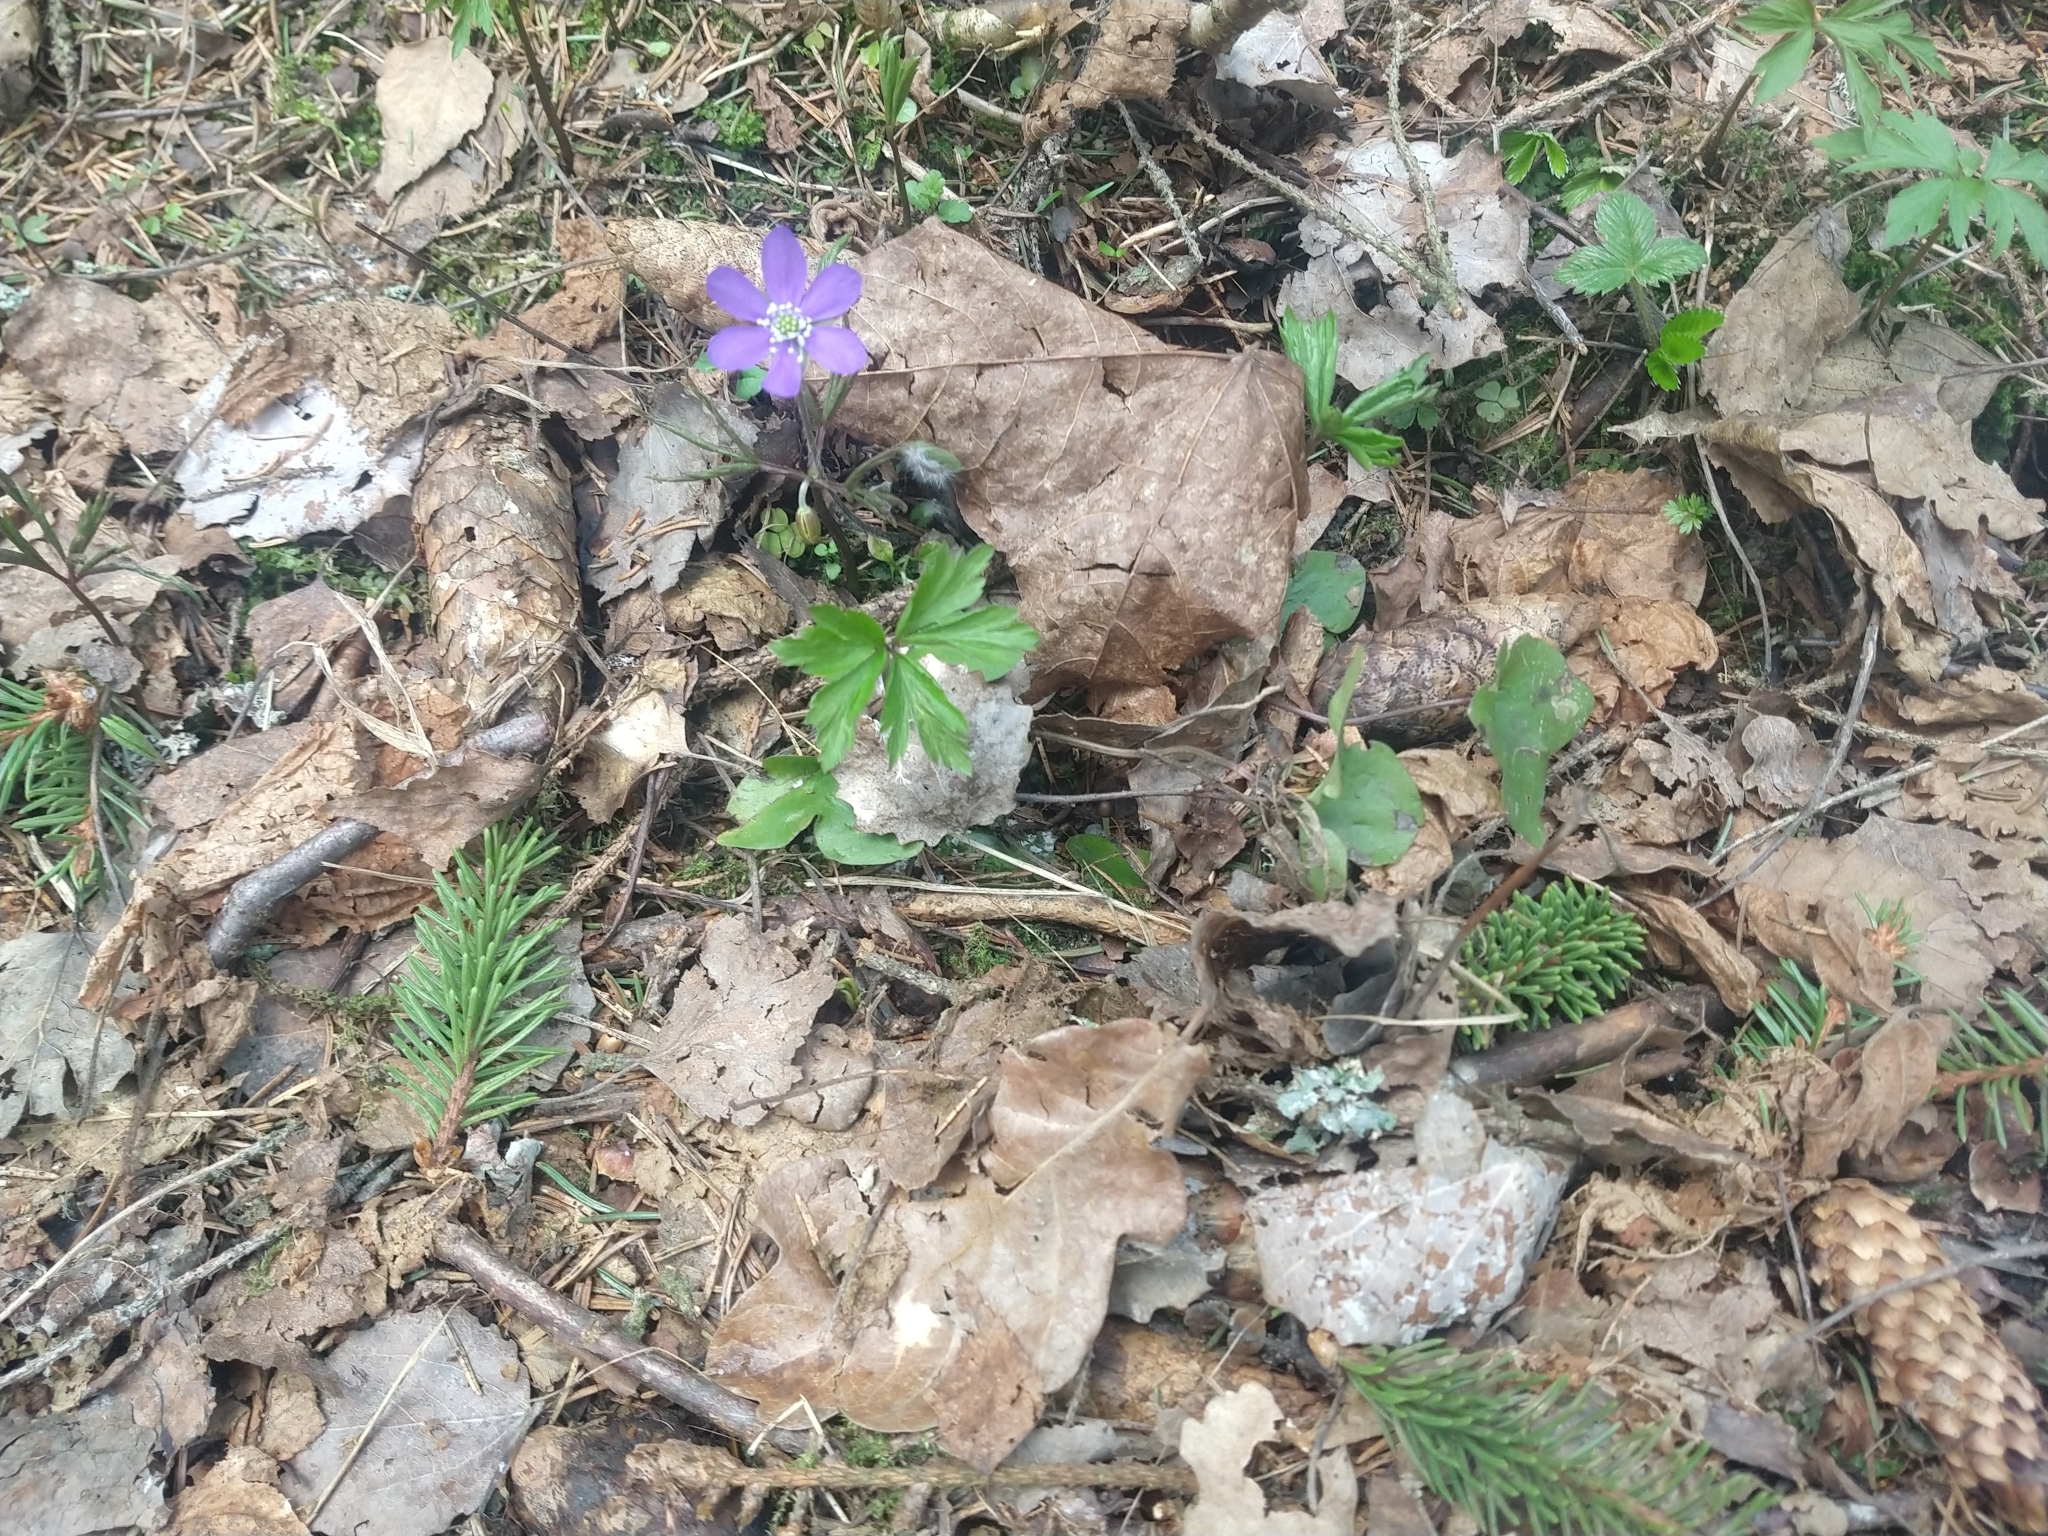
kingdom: Plantae
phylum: Tracheophyta
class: Magnoliopsida
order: Ranunculales
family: Ranunculaceae
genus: Hepatica
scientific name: Hepatica nobilis
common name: Liverleaf
